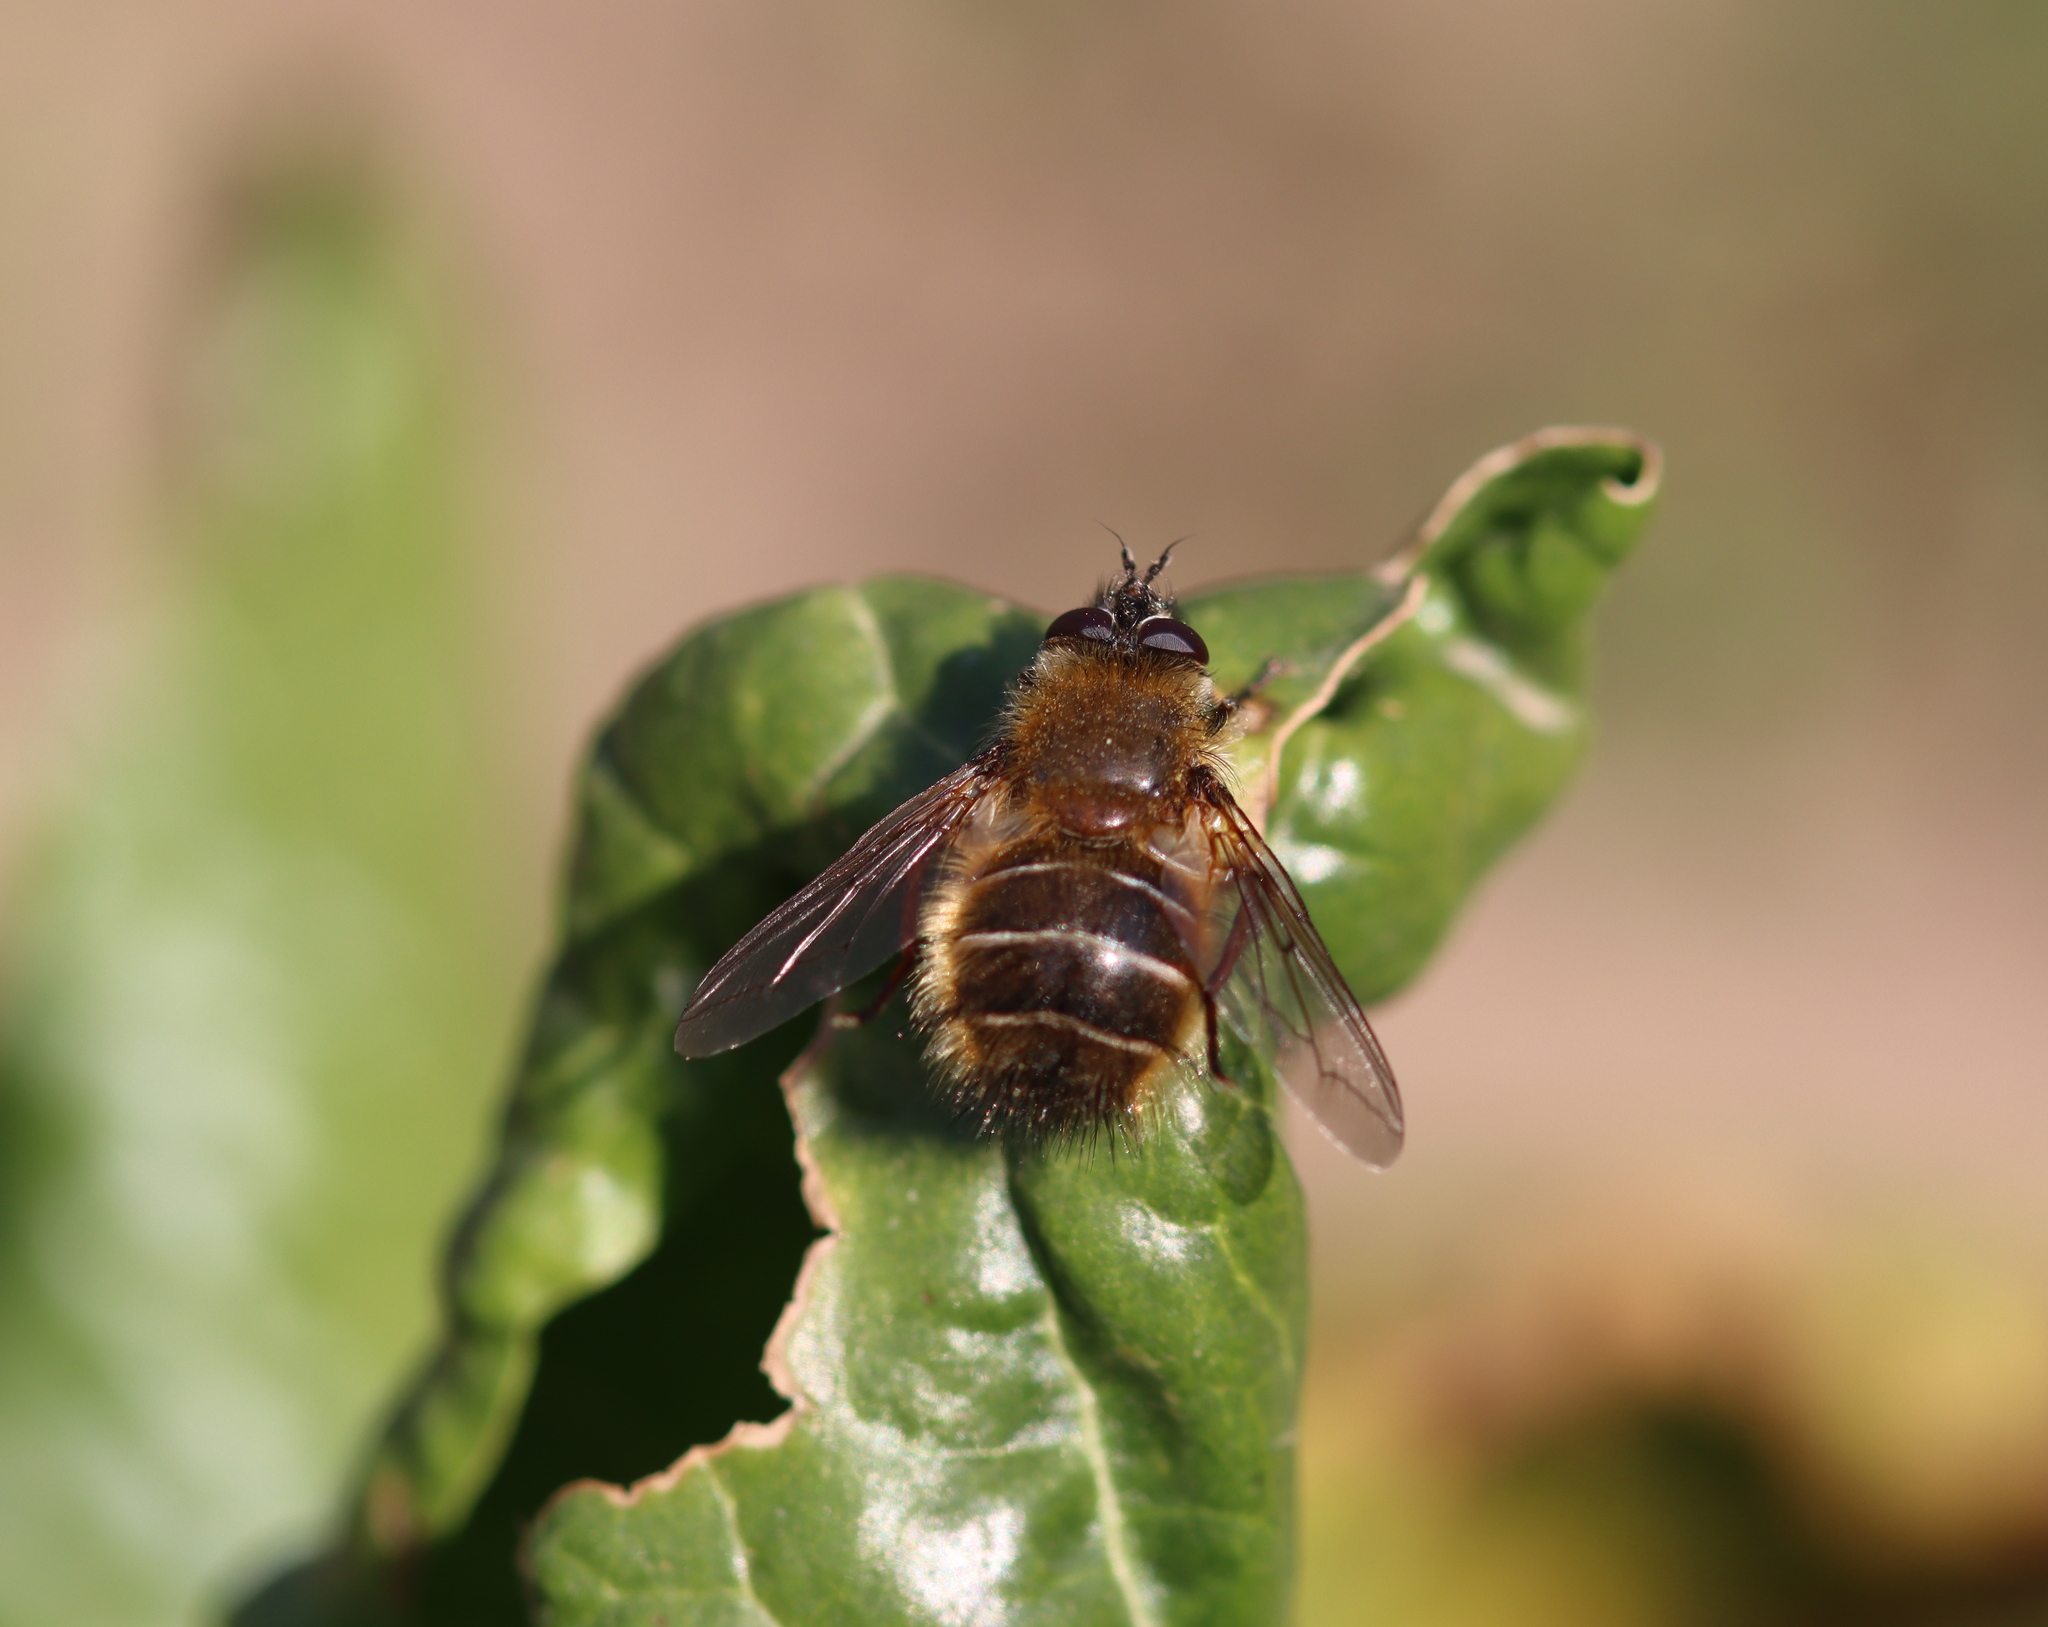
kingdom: Animalia
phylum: Arthropoda
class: Insecta
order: Diptera
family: Tachinidae
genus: Tachina
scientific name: Tachina ursina
